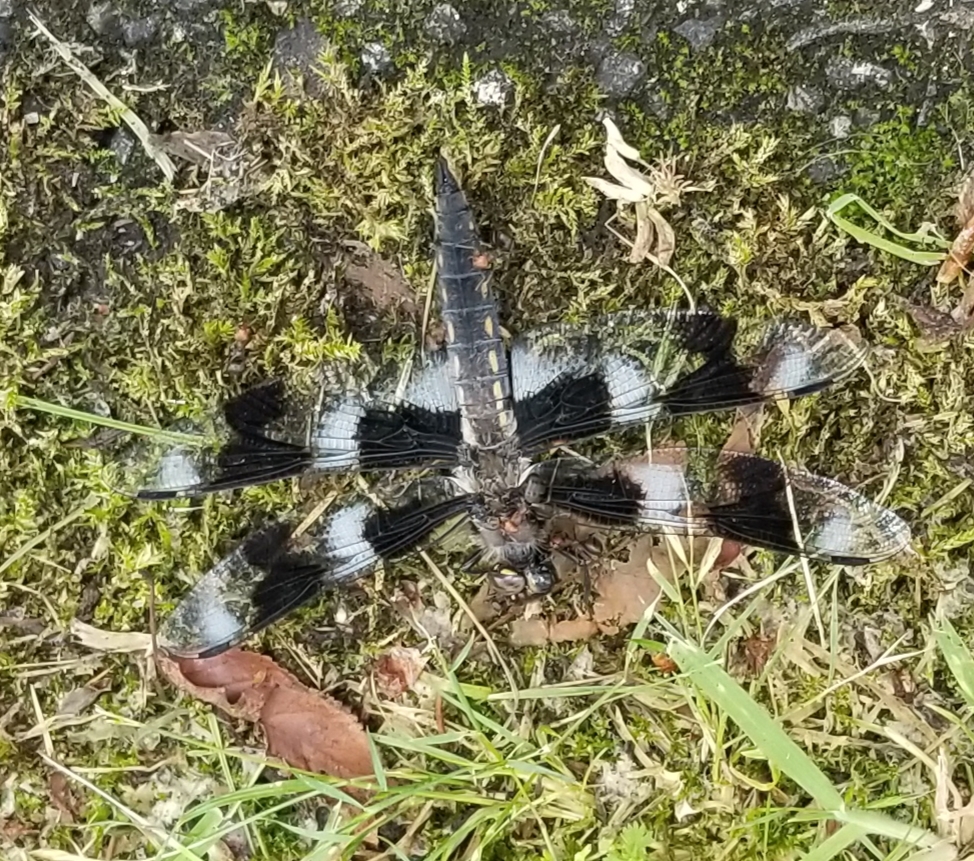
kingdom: Animalia
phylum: Arthropoda
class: Insecta
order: Odonata
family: Libellulidae
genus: Libellula
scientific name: Libellula forensis
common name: Eight-spotted skimmer
